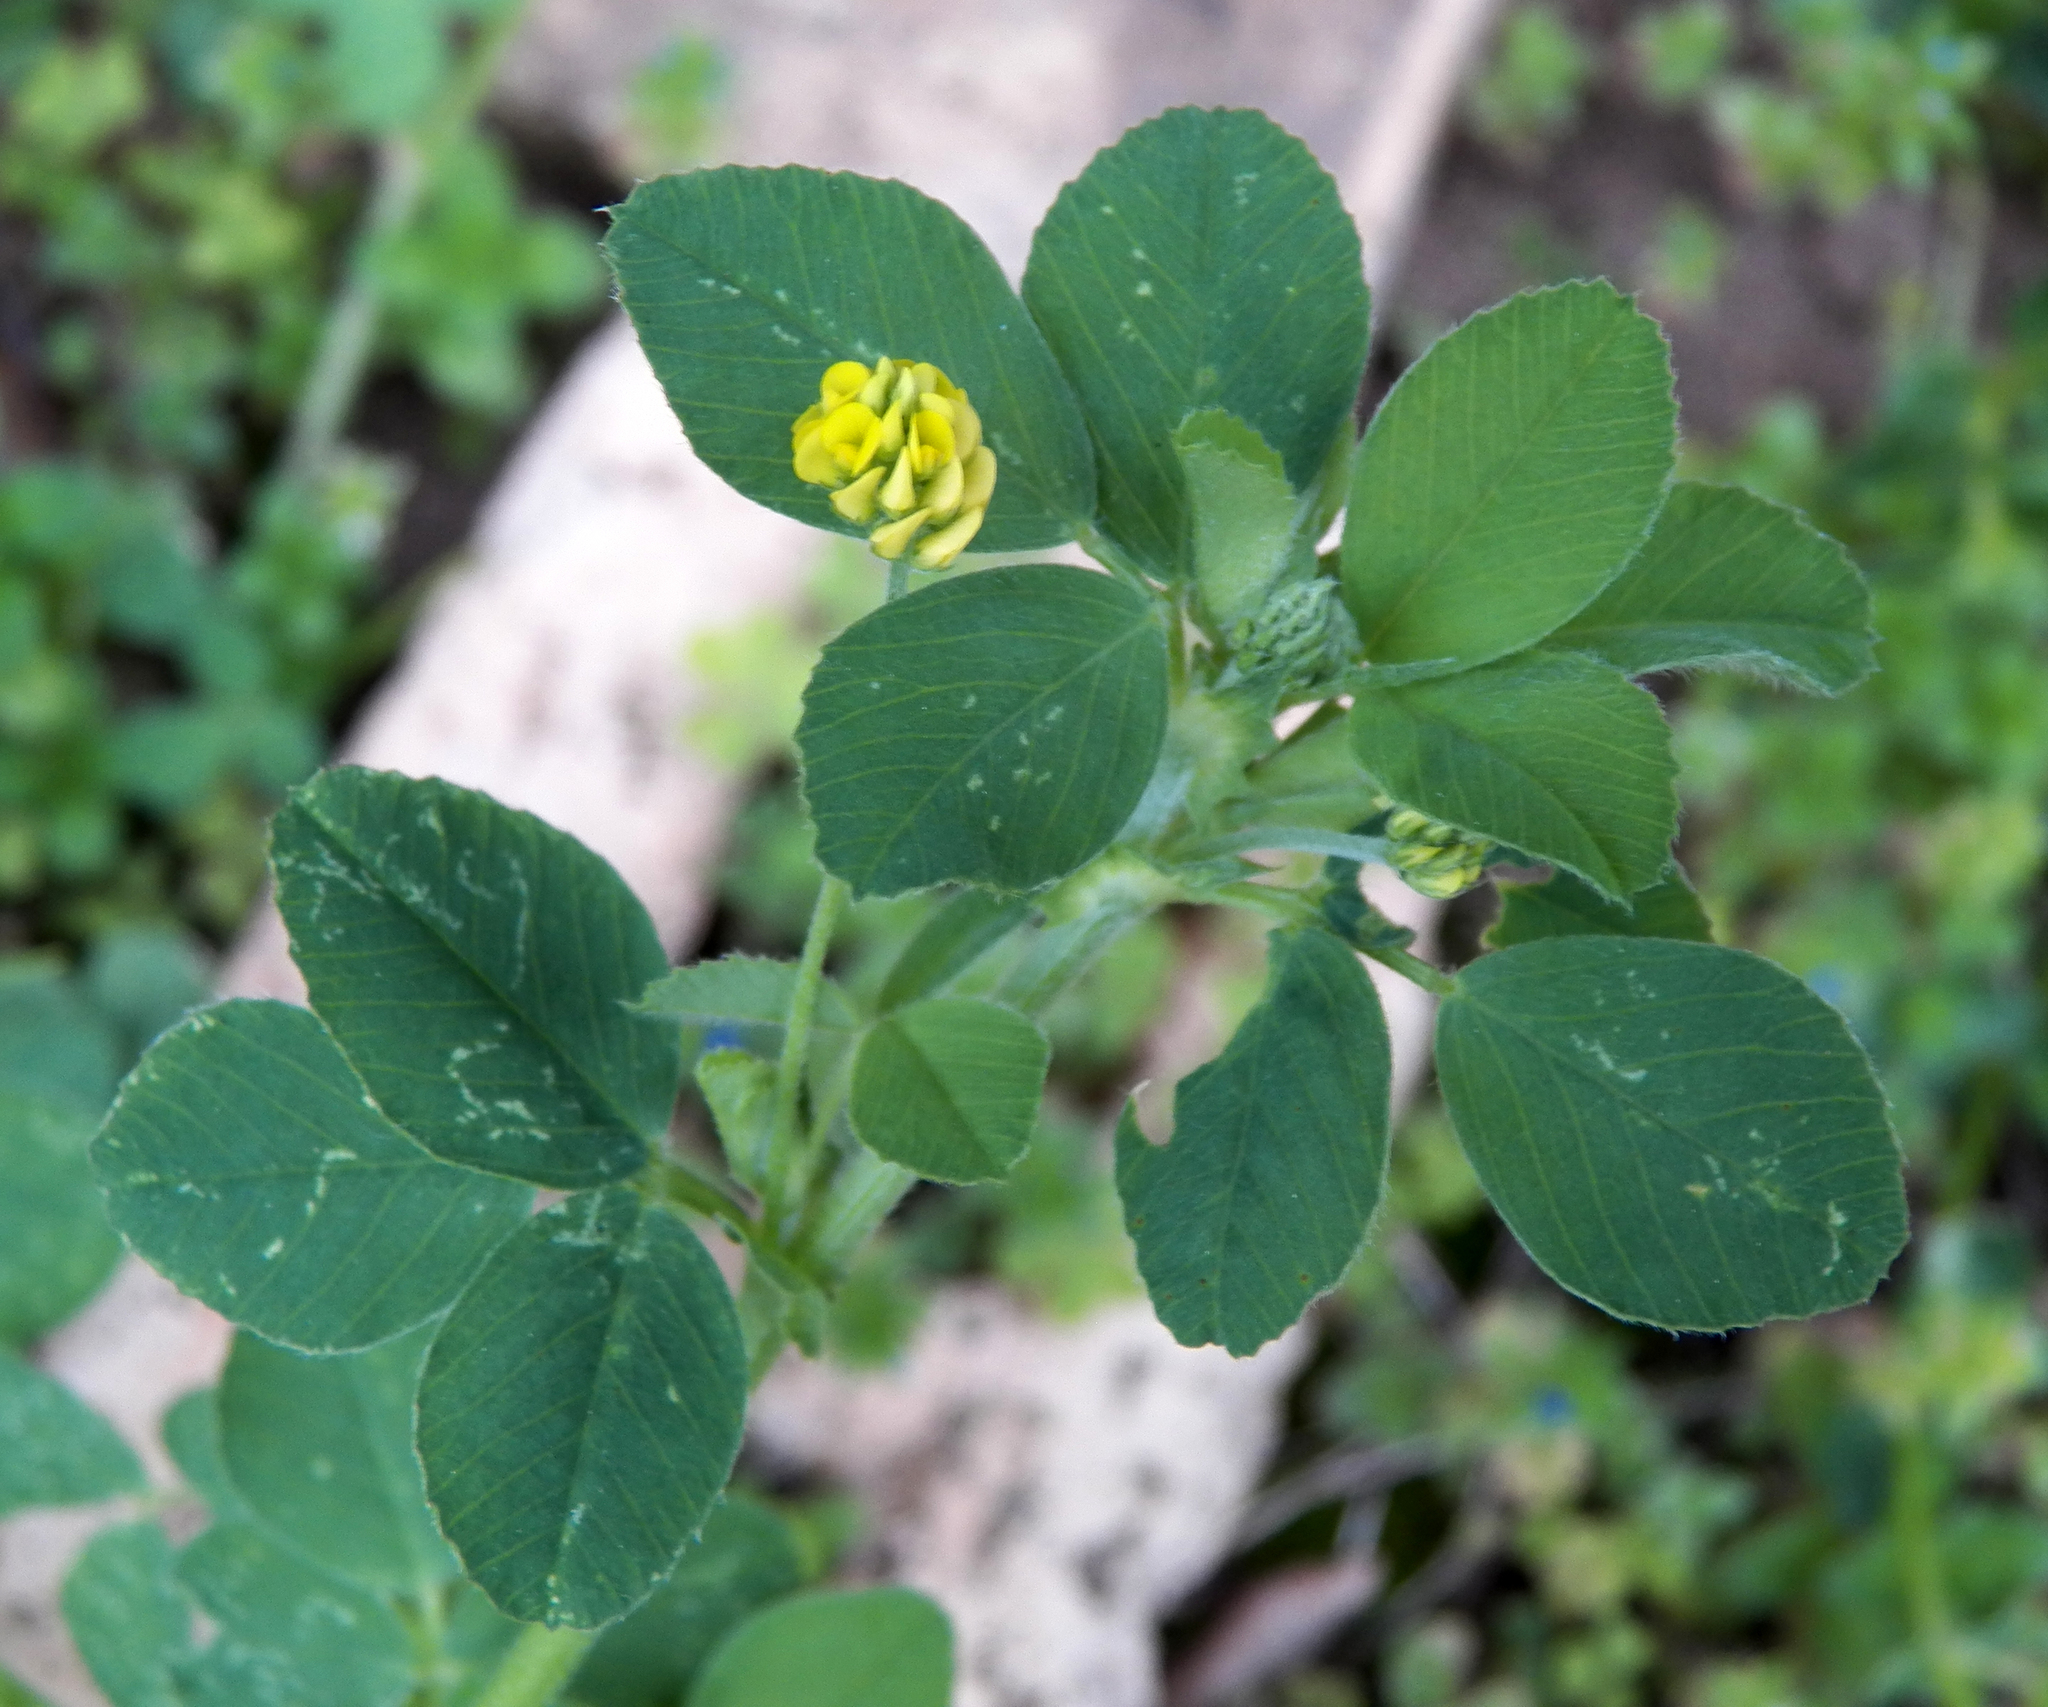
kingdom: Plantae
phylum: Tracheophyta
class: Magnoliopsida
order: Fabales
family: Fabaceae
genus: Medicago
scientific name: Medicago lupulina
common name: Black medick
